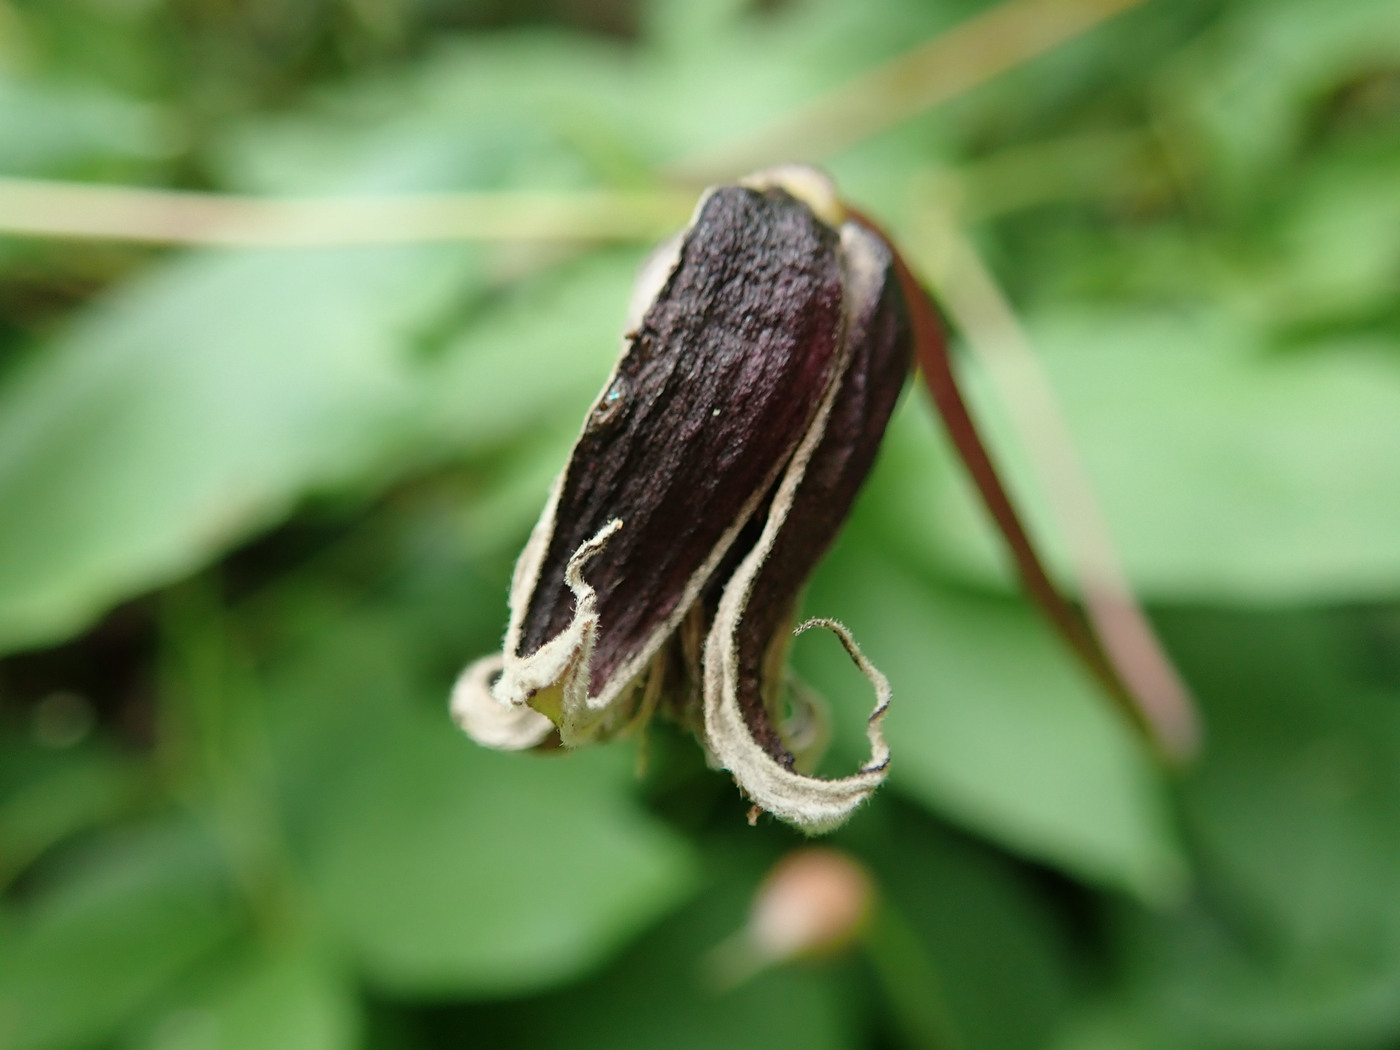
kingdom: Plantae
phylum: Tracheophyta
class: Magnoliopsida
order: Ranunculales
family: Ranunculaceae
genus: Clematis
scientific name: Clematis viorna
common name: Leather-flower
